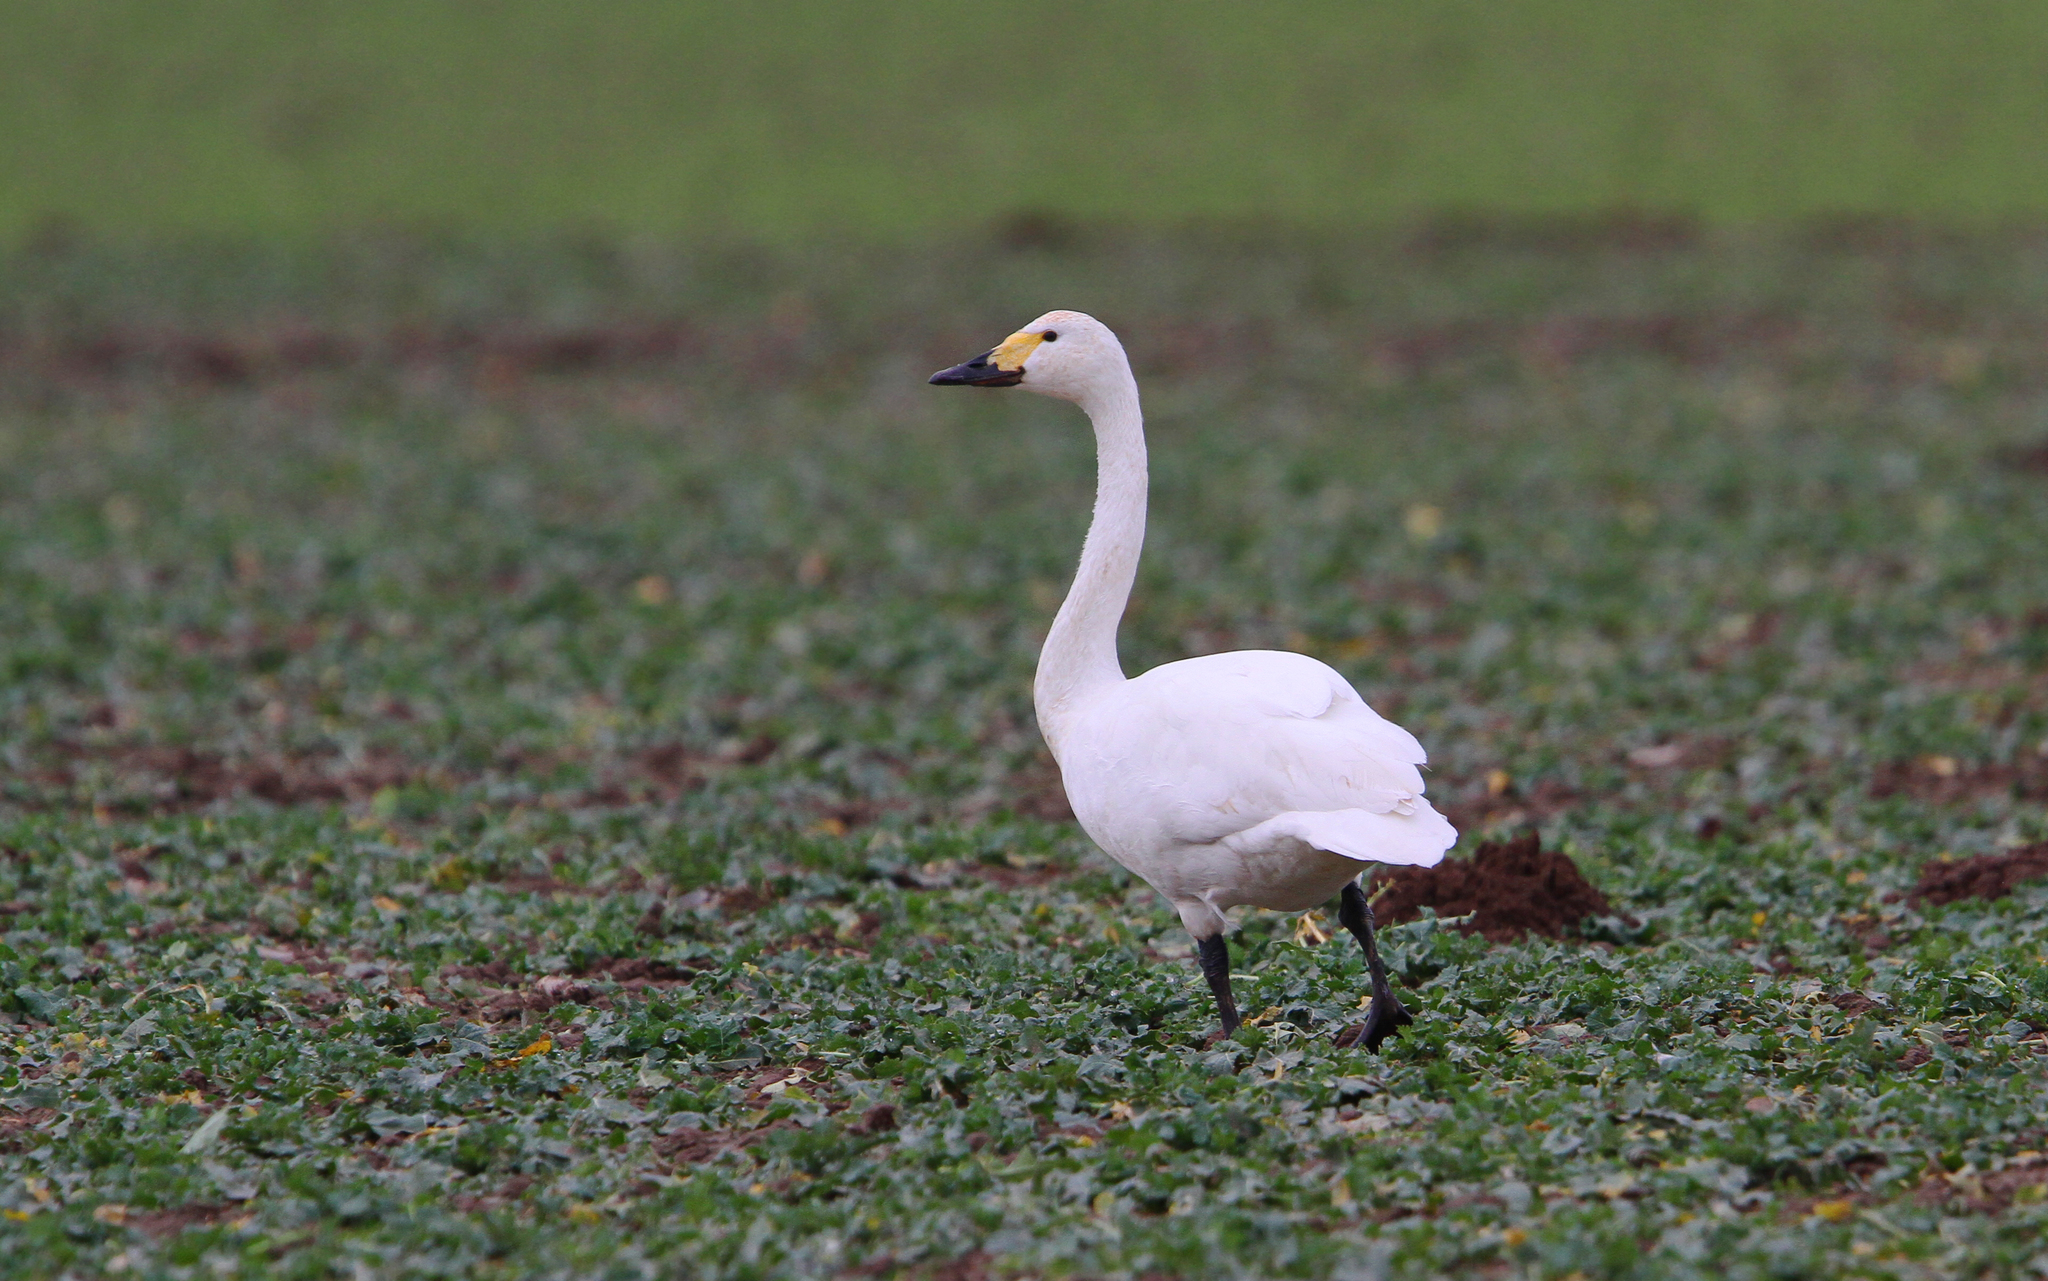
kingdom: Animalia
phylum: Chordata
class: Aves
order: Anseriformes
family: Anatidae
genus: Cygnus
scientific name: Cygnus columbianus
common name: Tundra swan
